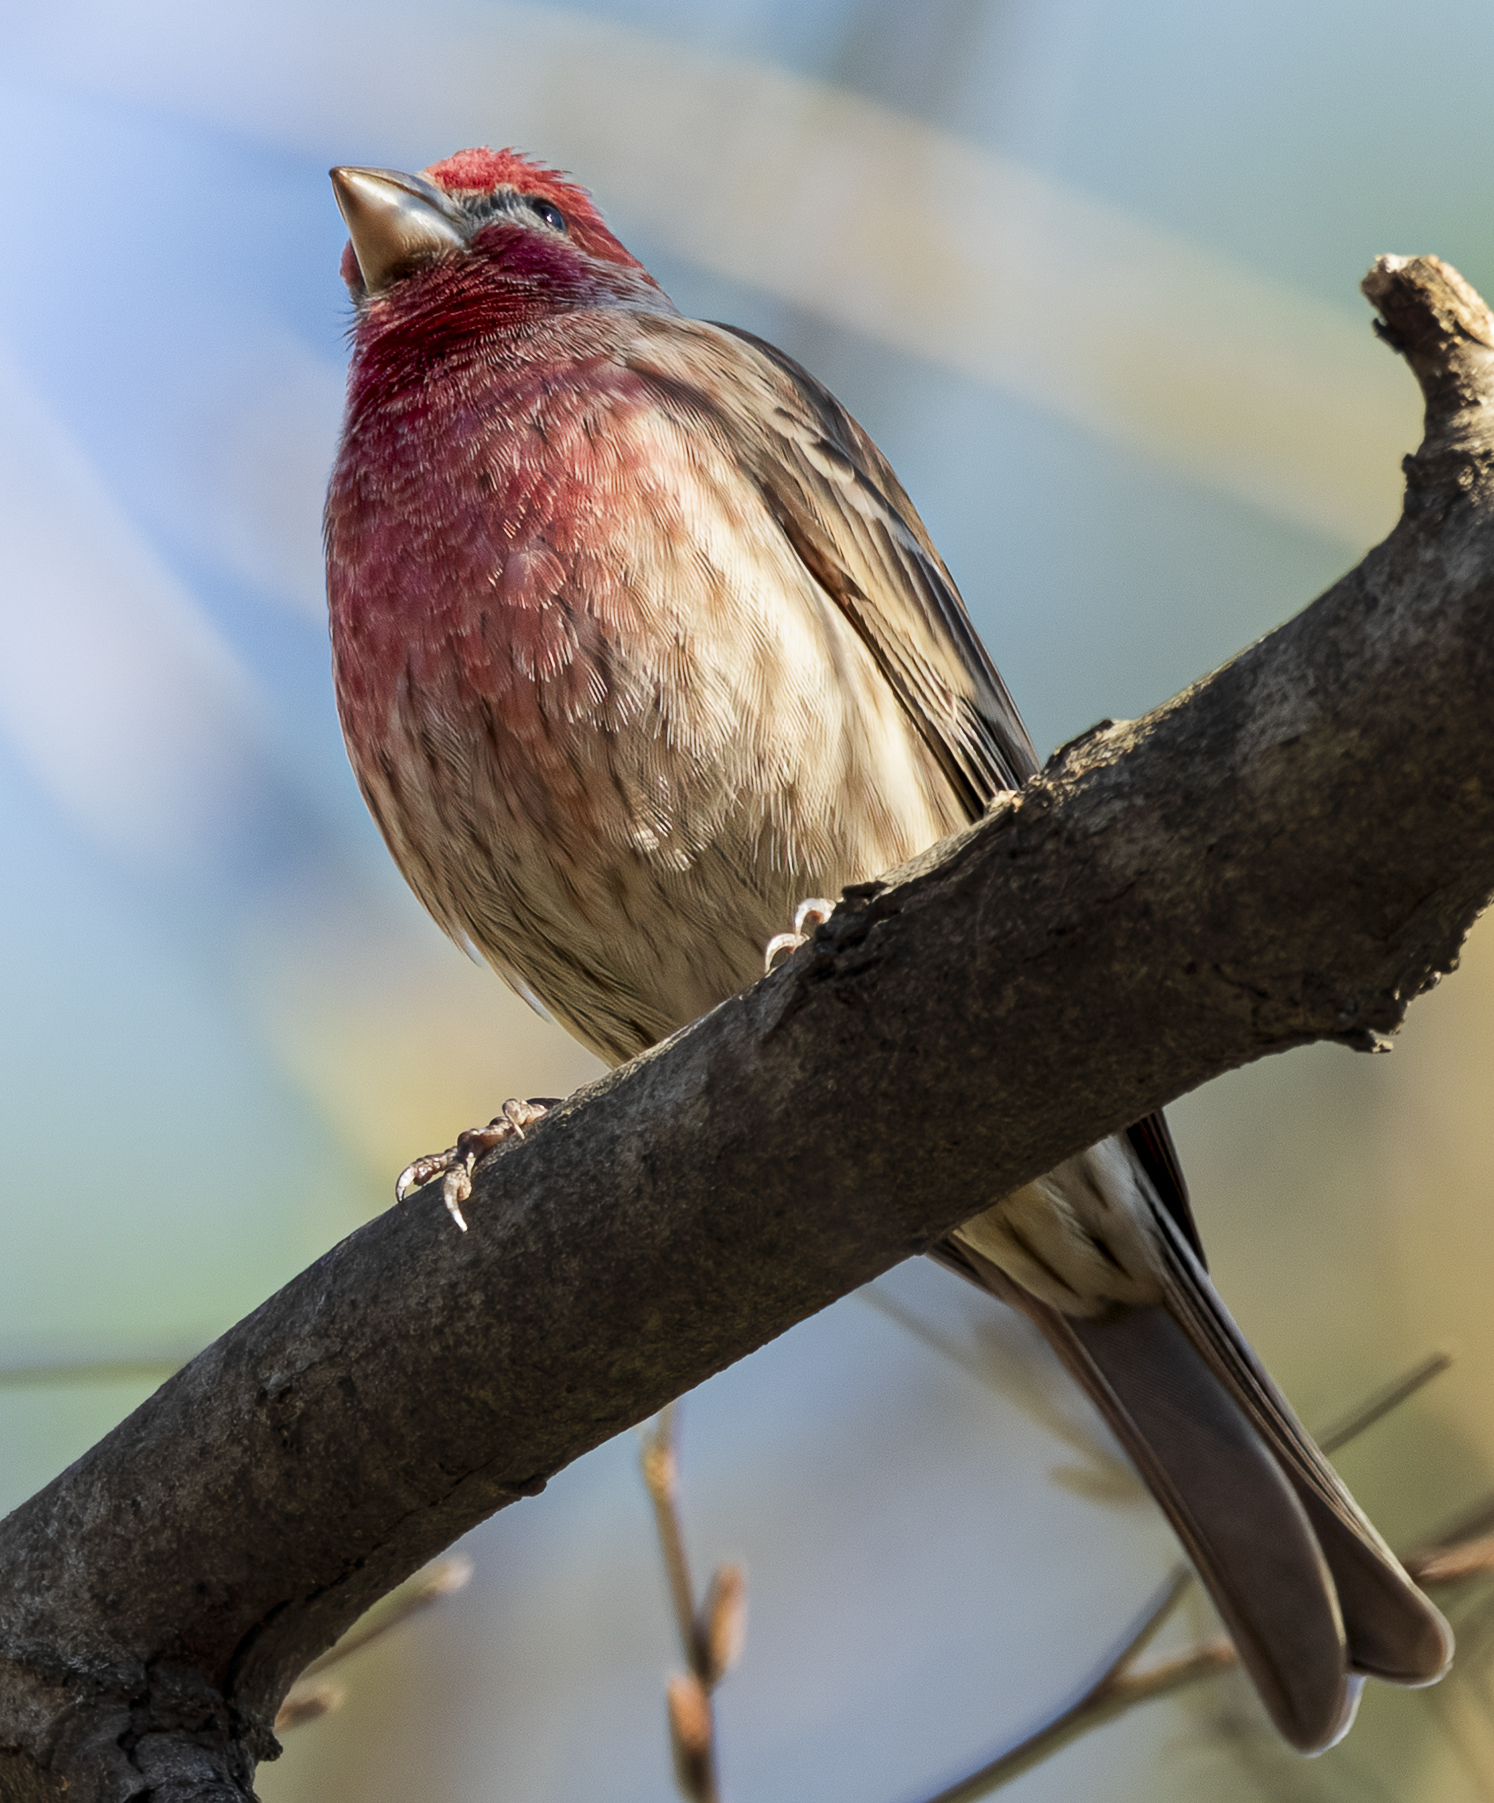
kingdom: Animalia
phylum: Chordata
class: Aves
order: Passeriformes
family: Fringillidae
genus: Haemorhous
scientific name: Haemorhous mexicanus
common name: House finch
